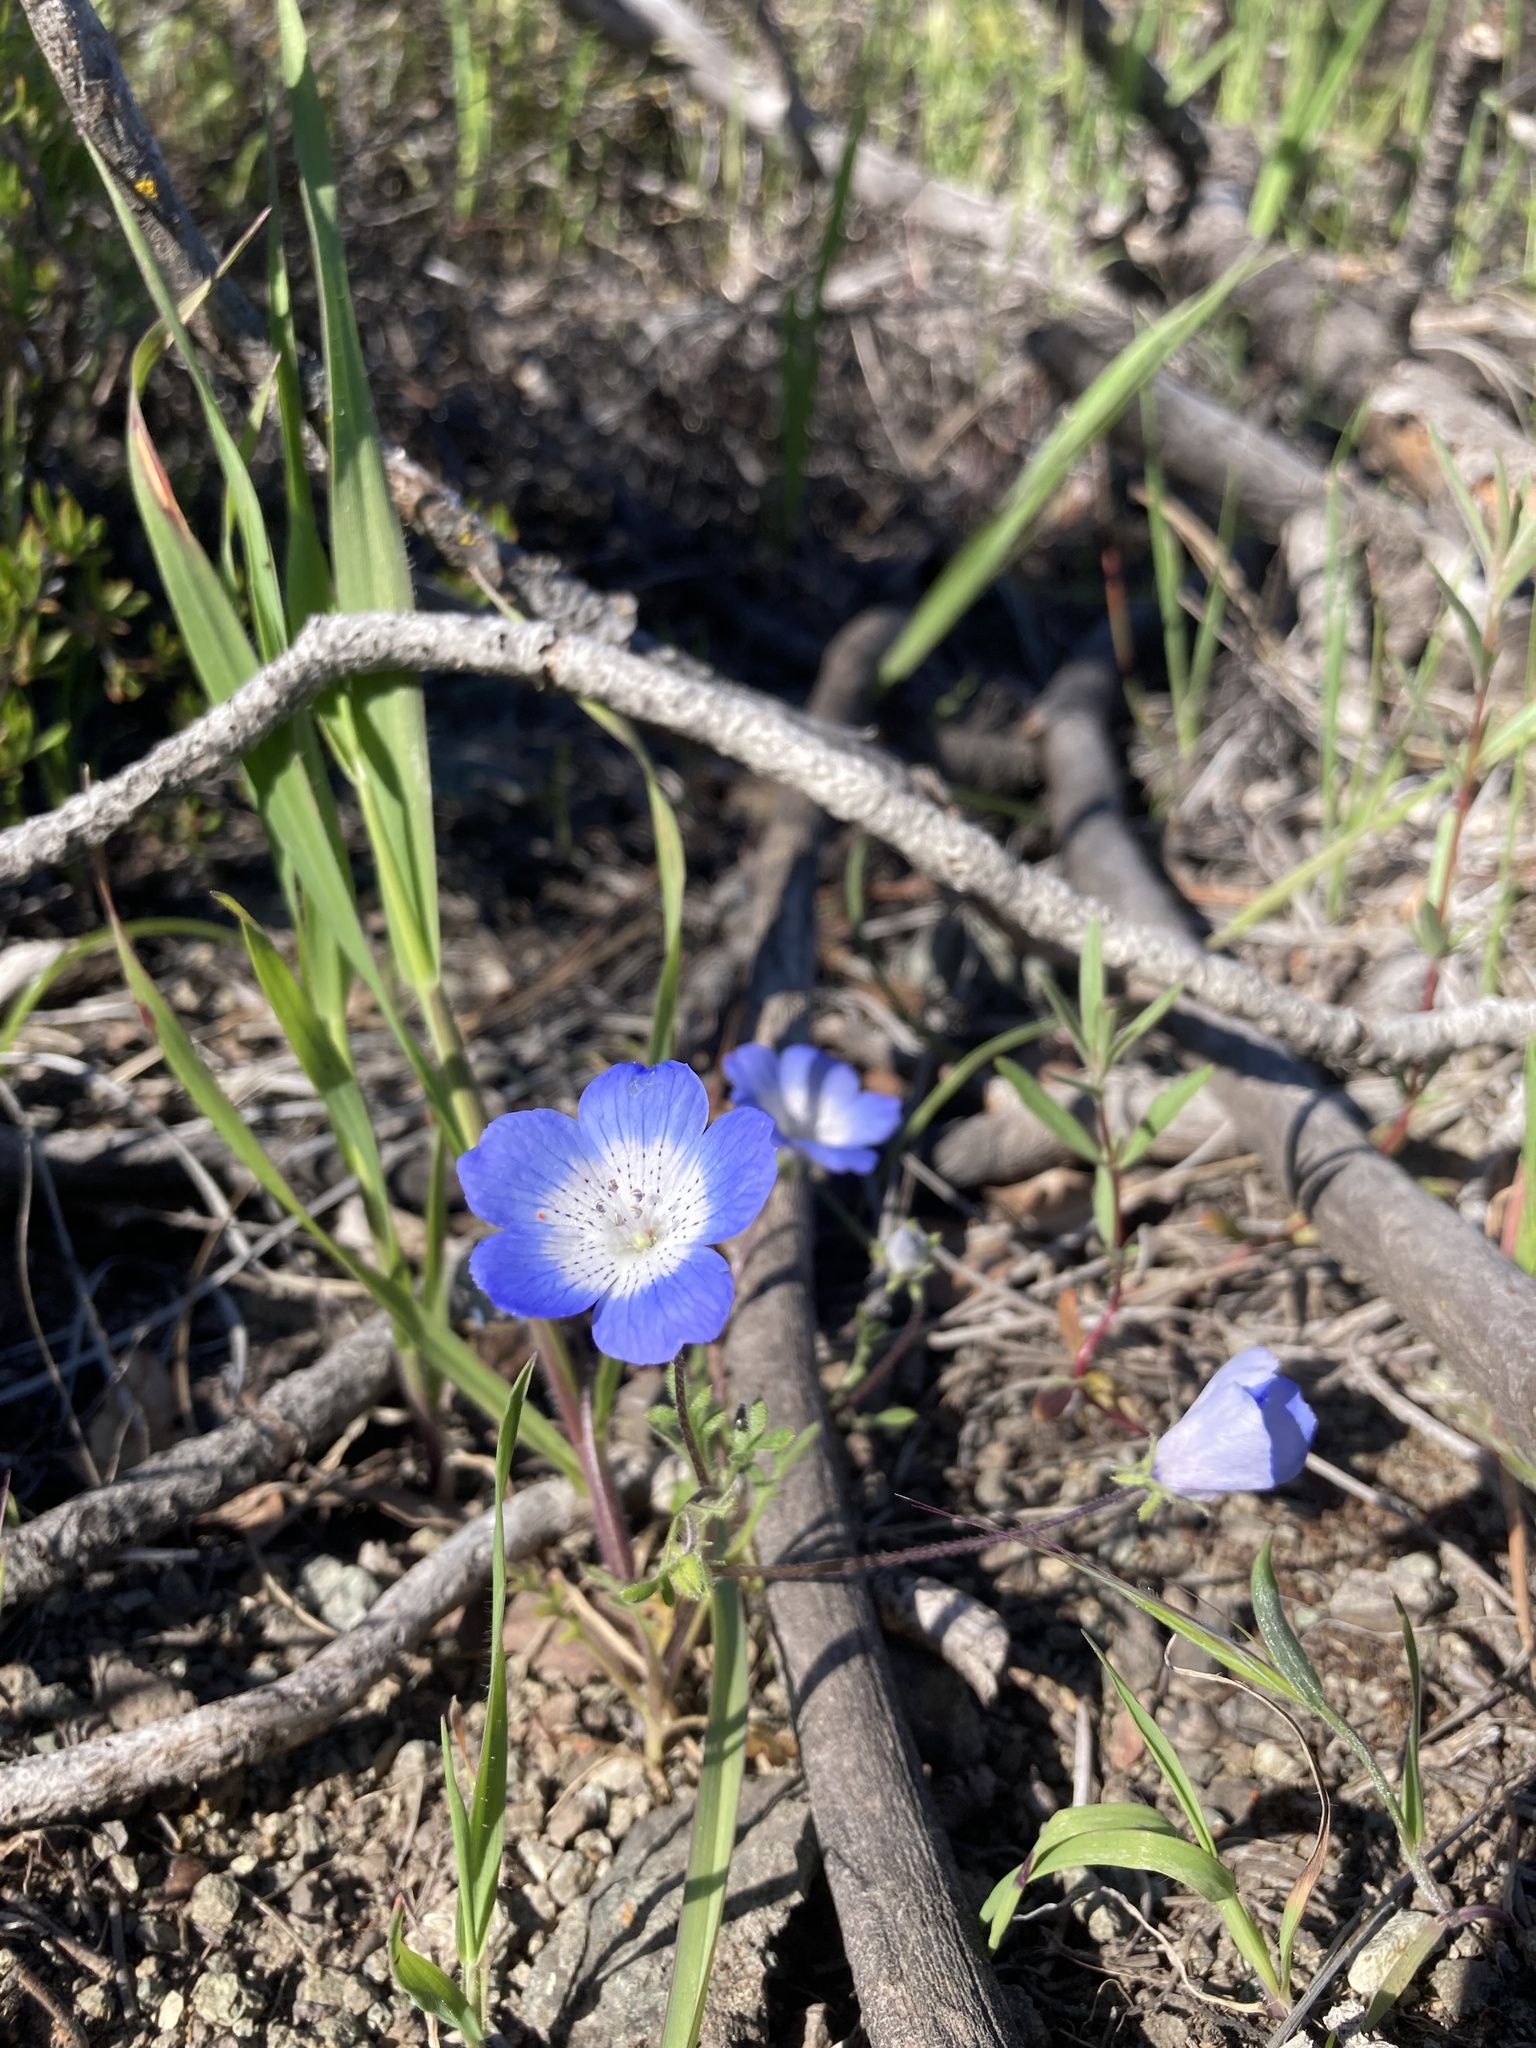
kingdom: Plantae
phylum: Tracheophyta
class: Magnoliopsida
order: Boraginales
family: Hydrophyllaceae
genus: Nemophila
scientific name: Nemophila menziesii
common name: Baby's-blue-eyes
